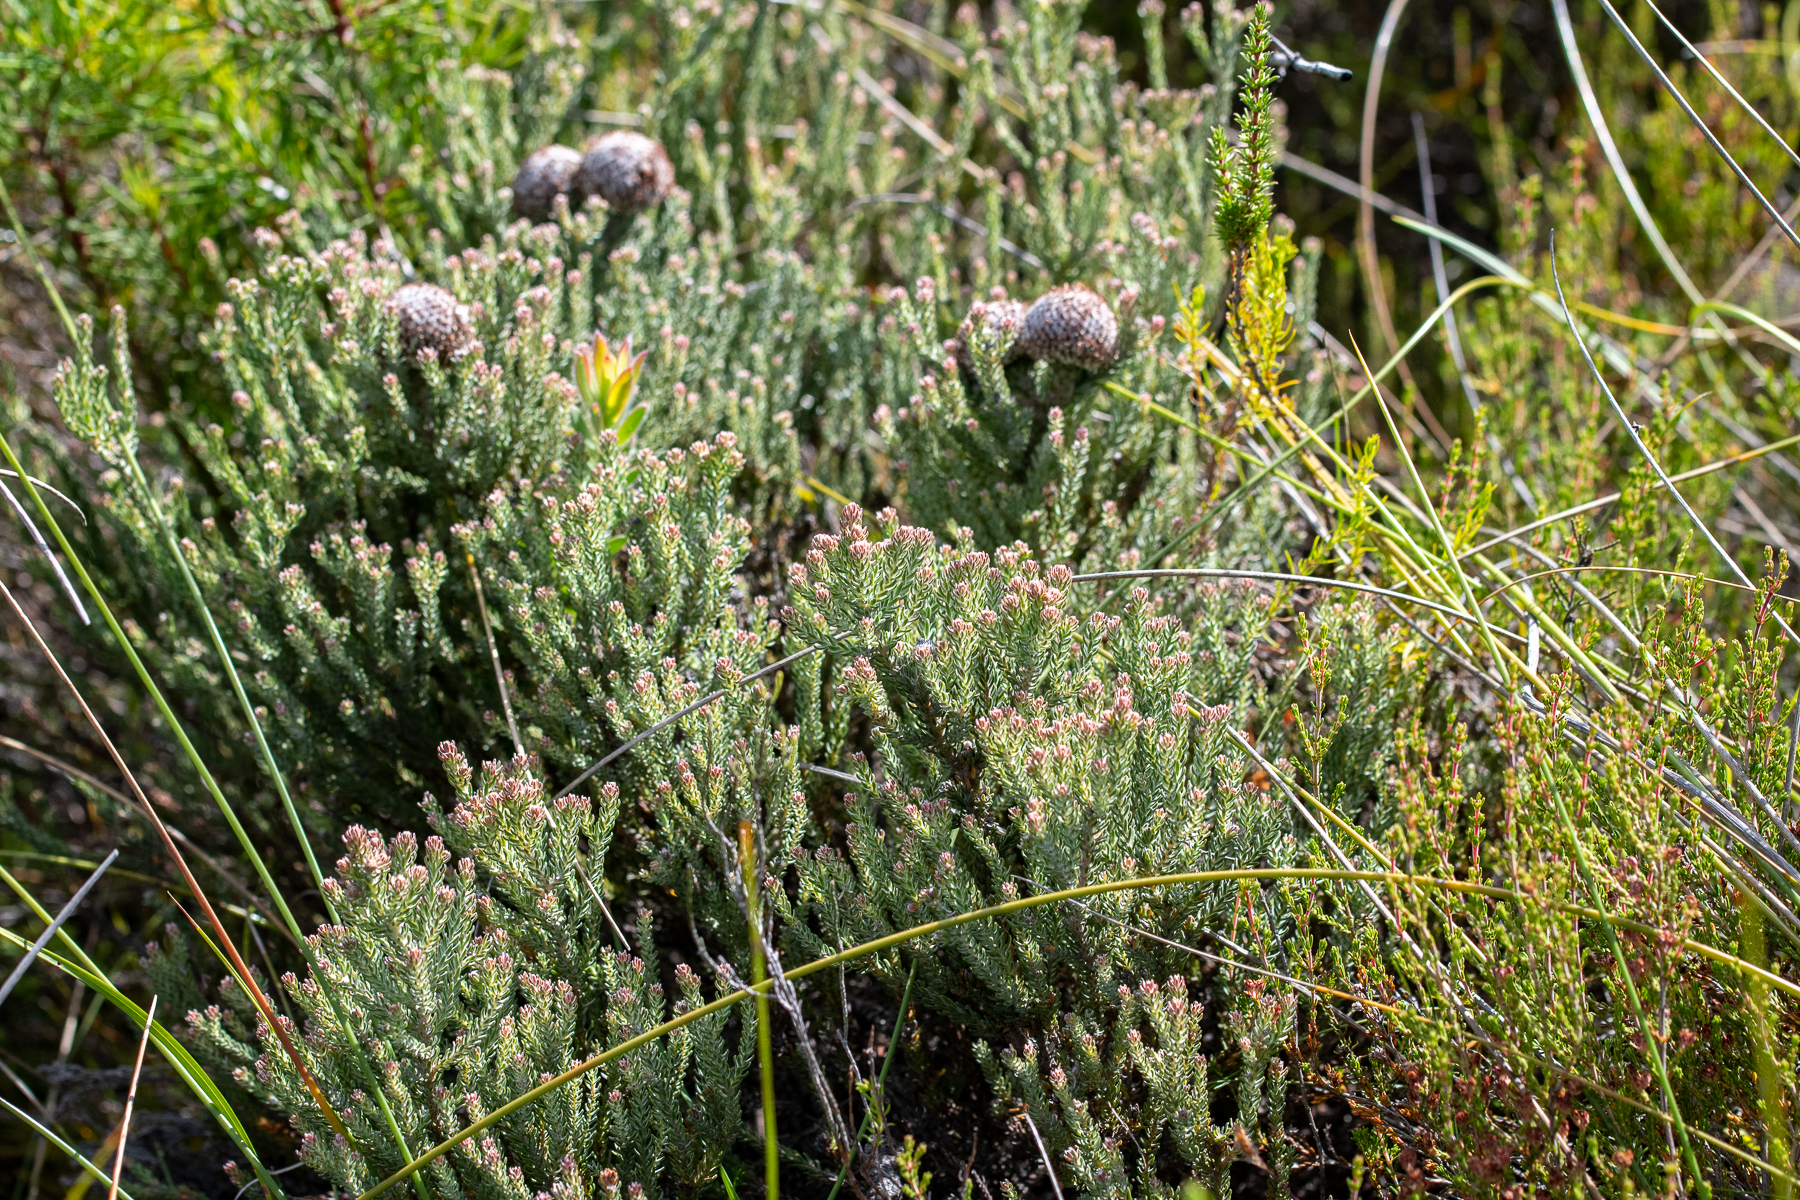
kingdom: Plantae
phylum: Tracheophyta
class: Magnoliopsida
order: Bruniales
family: Bruniaceae
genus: Brunia
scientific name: Brunia laevis
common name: Silver brunia
